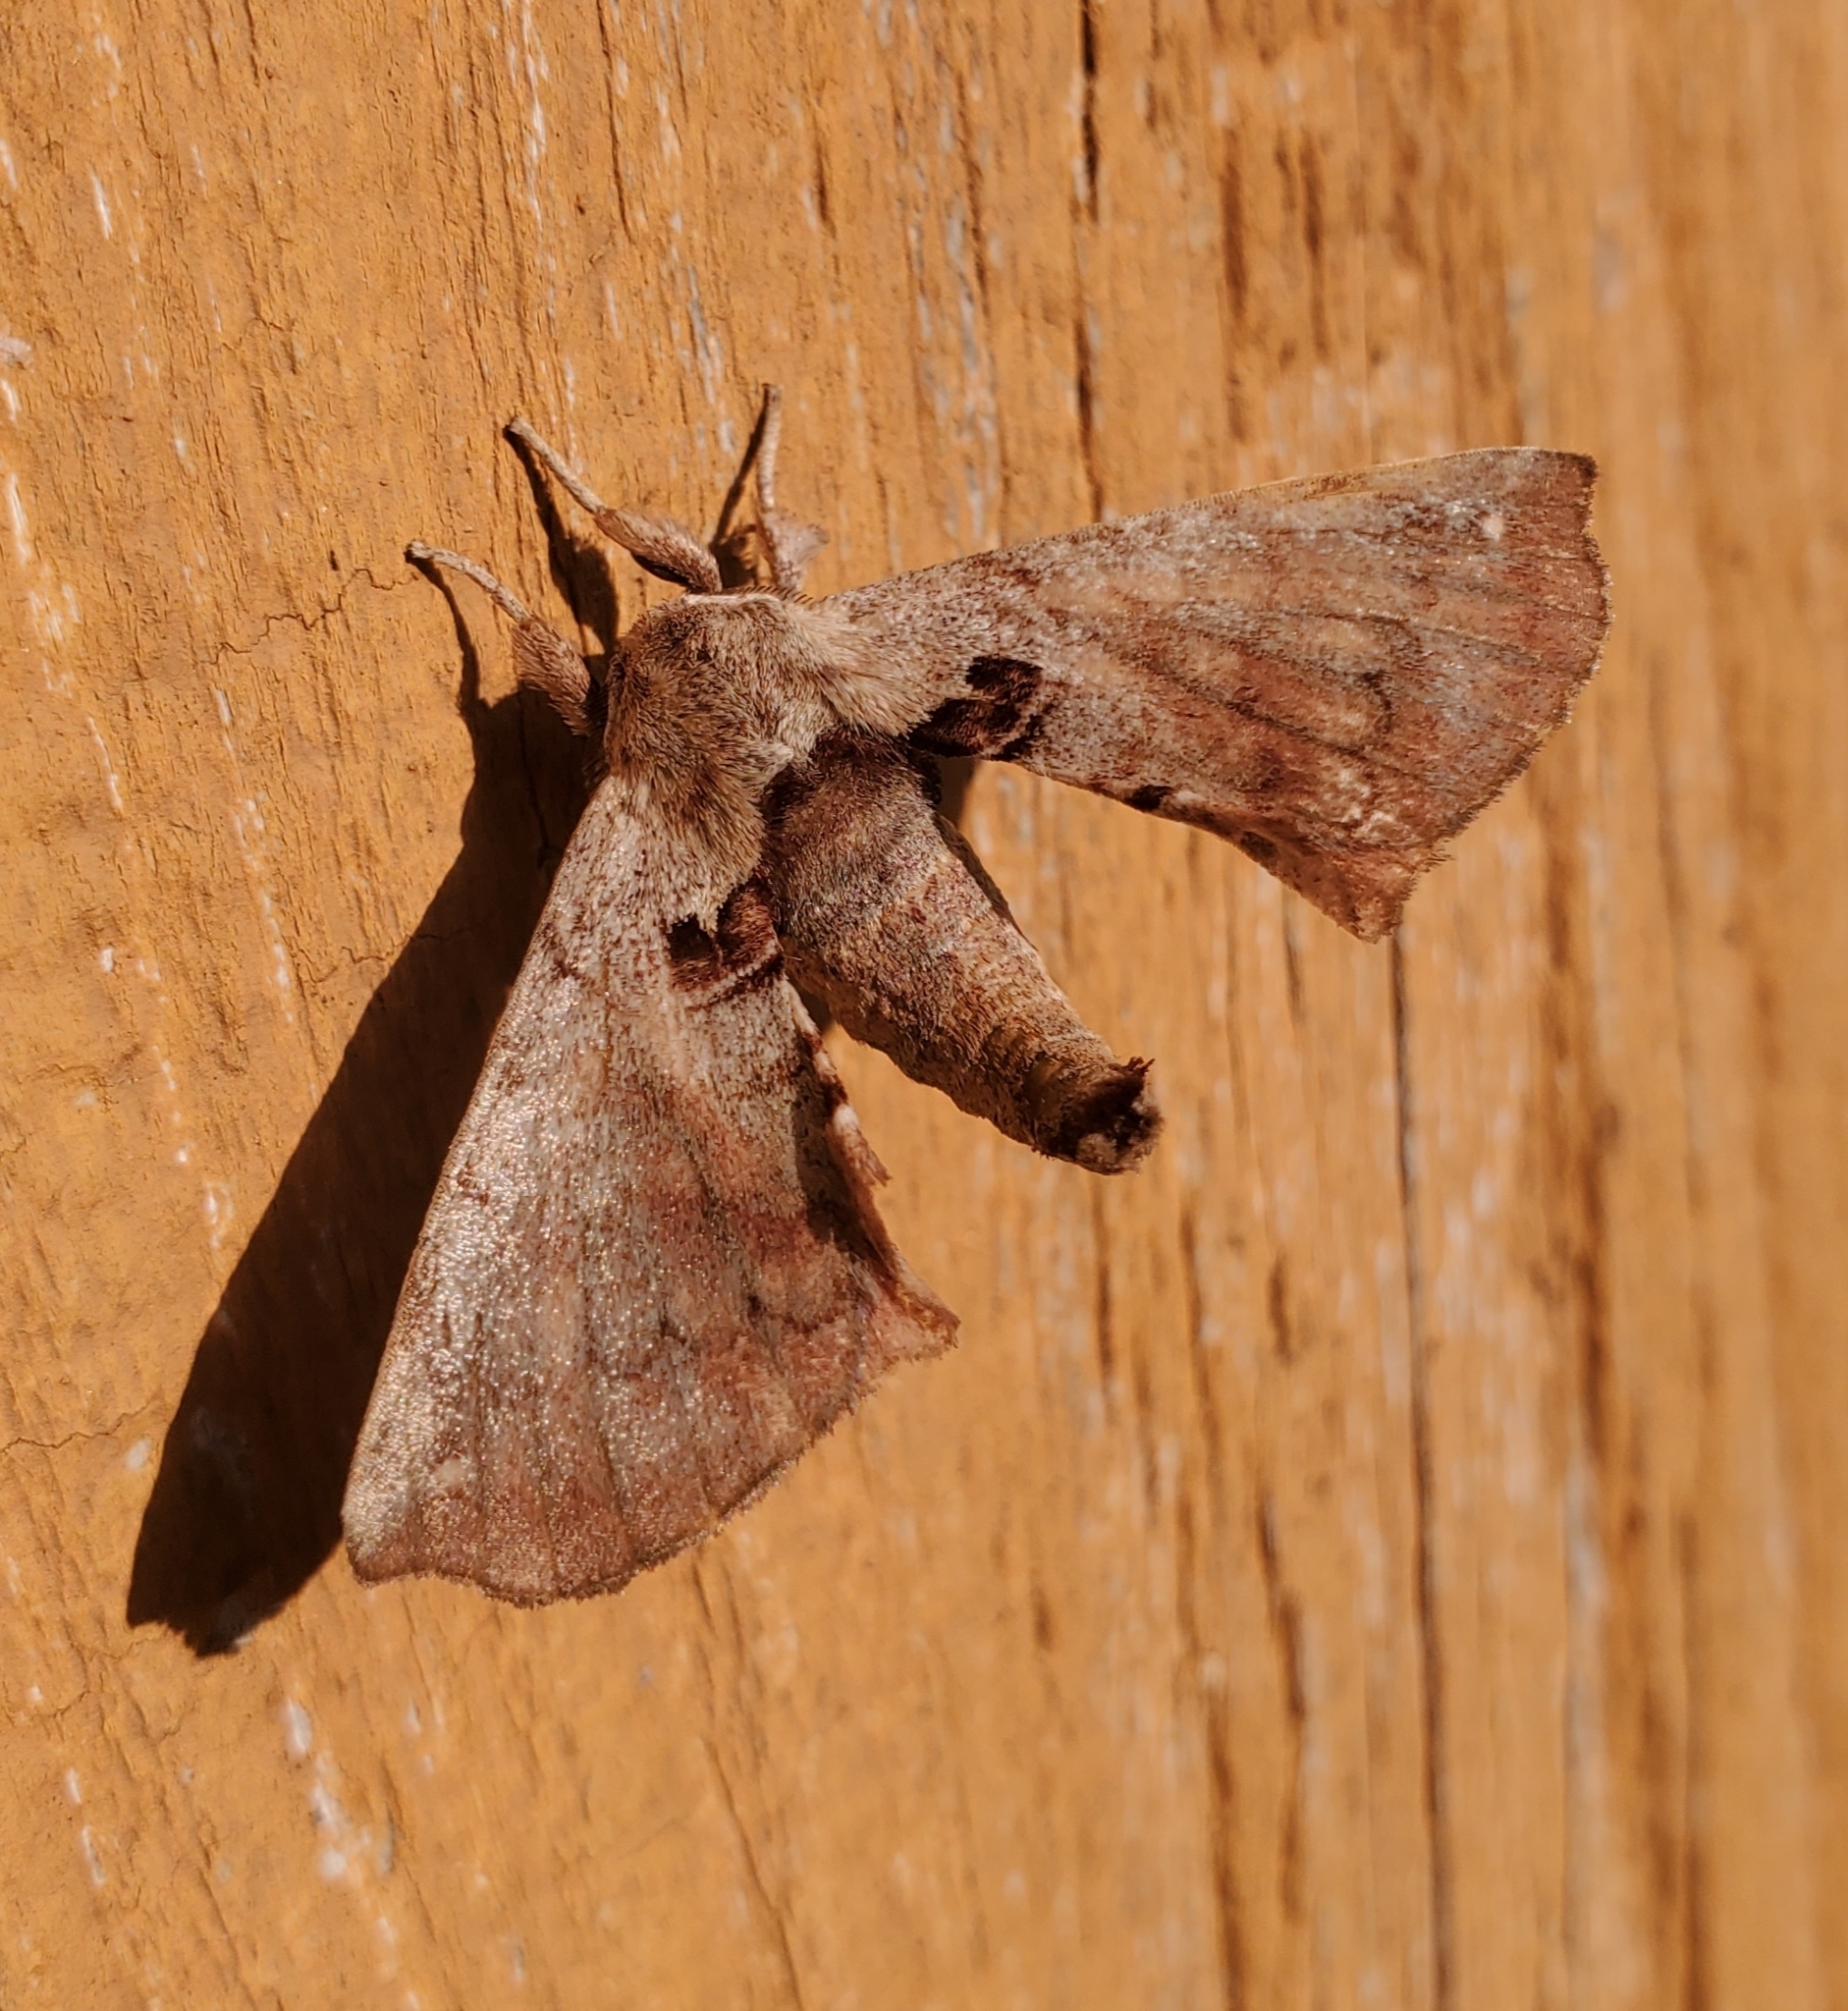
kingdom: Animalia
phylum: Arthropoda
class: Insecta
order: Lepidoptera
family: Apatelodidae
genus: Hygrochroa
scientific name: Hygrochroa Apatelodes torrefacta
